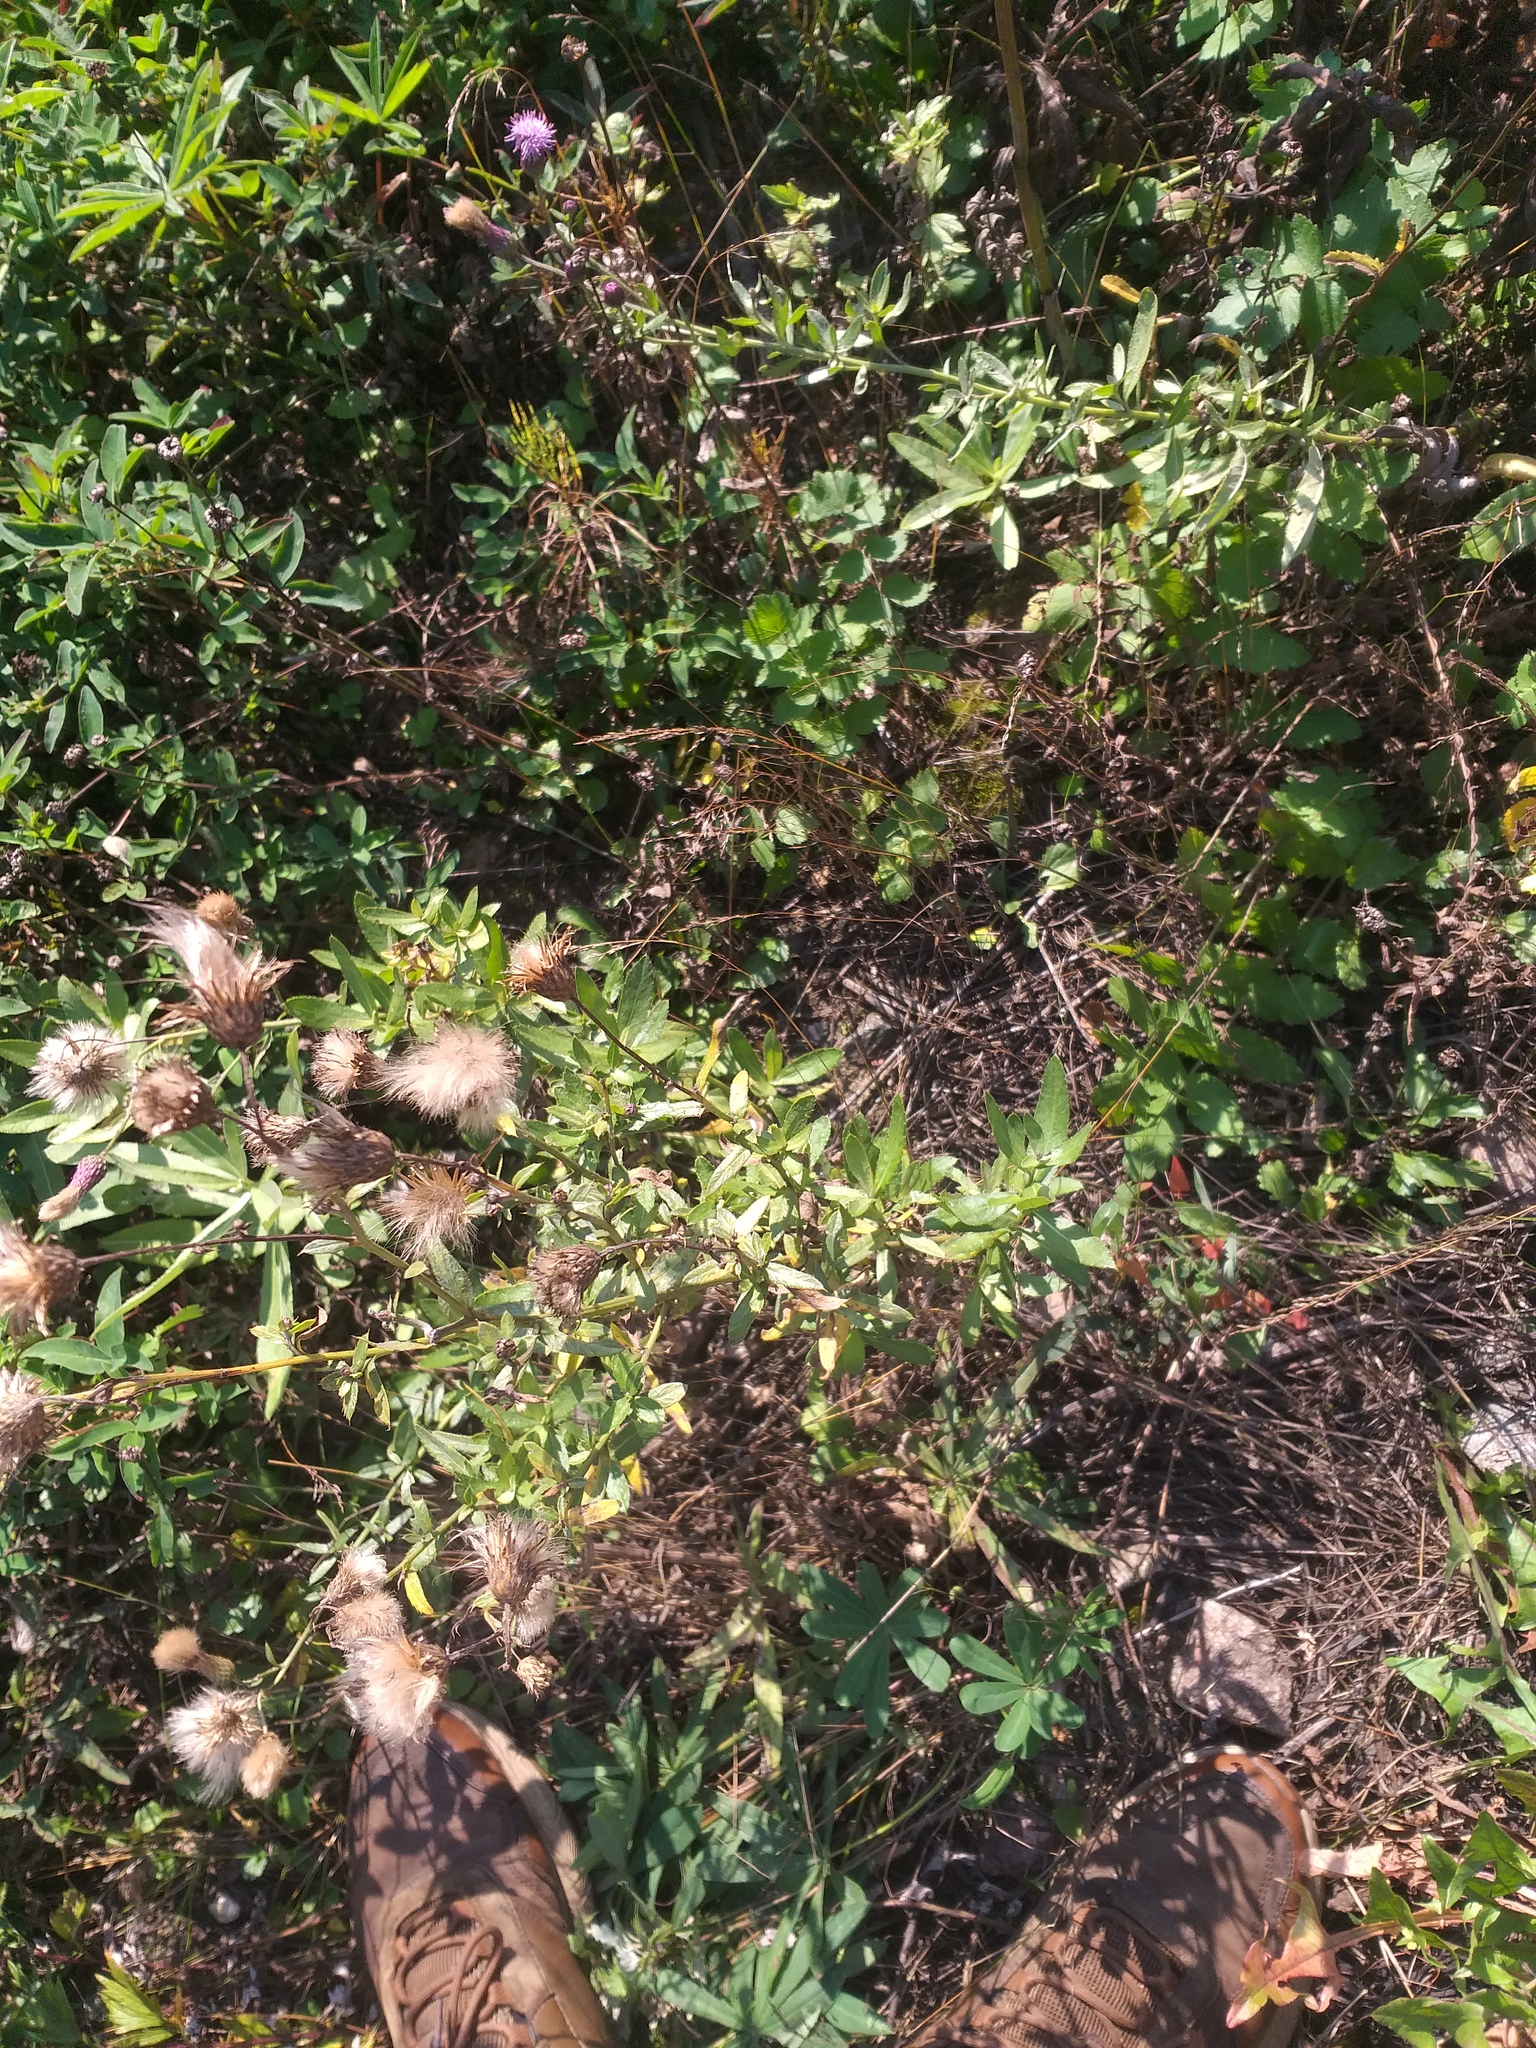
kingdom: Plantae
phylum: Tracheophyta
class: Magnoliopsida
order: Asterales
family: Asteraceae
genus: Cirsium
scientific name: Cirsium arvense
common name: Creeping thistle
